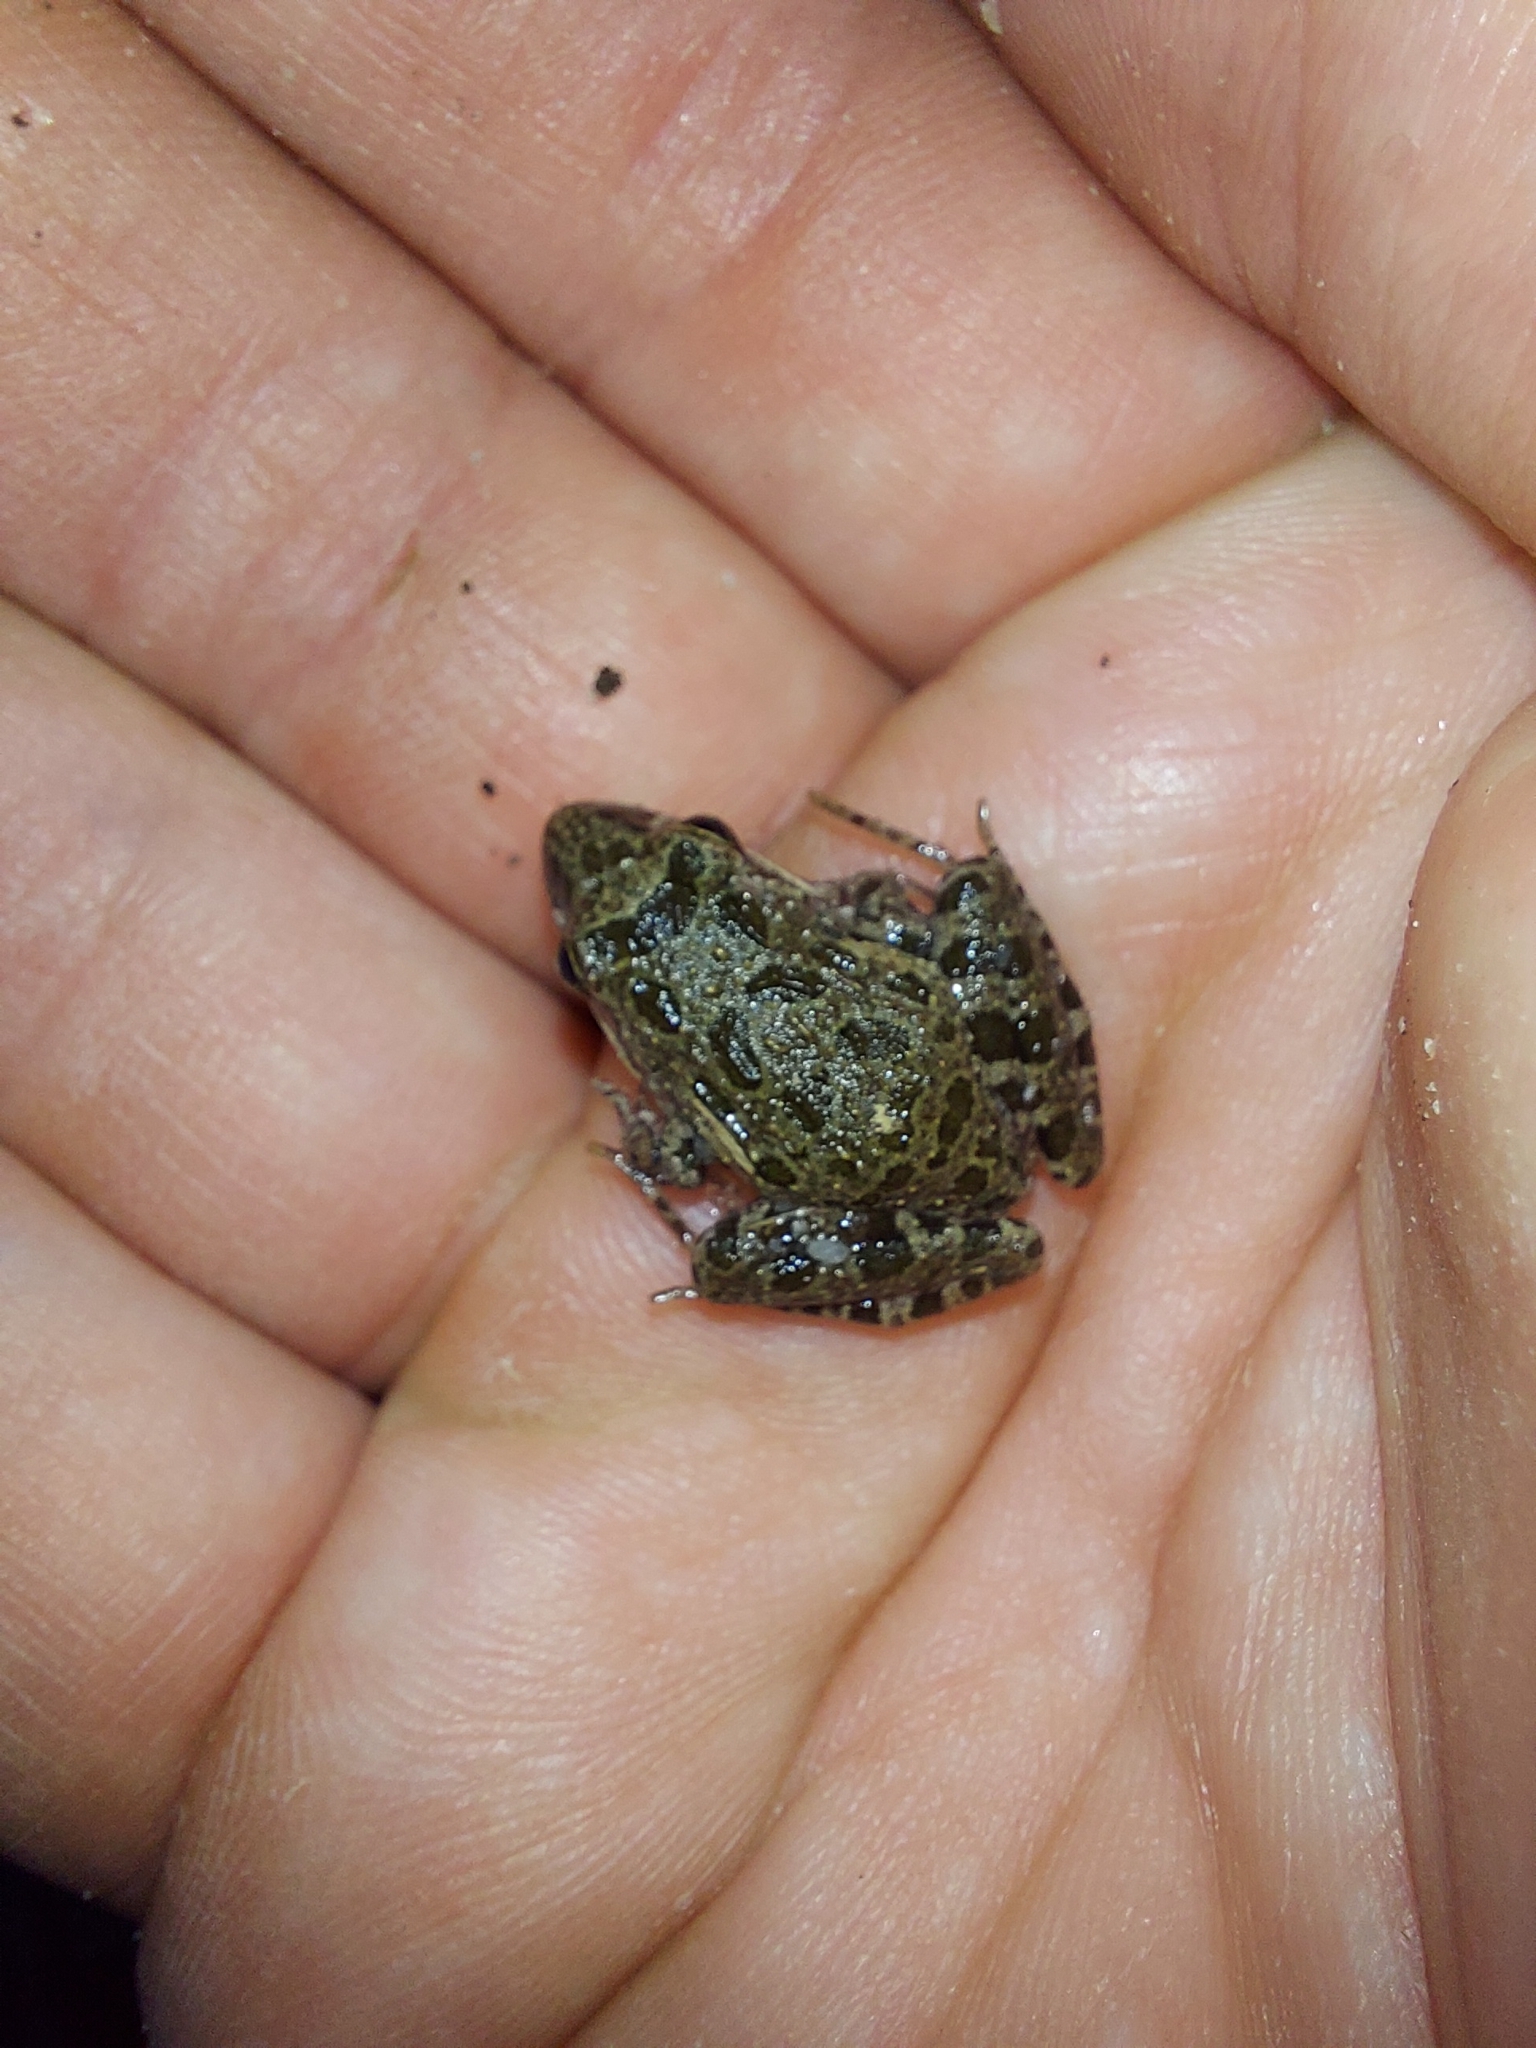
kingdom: Animalia
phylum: Chordata
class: Amphibia
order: Anura
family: Pyxicephalidae
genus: Strongylopus
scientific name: Strongylopus grayii
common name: Gray's stream frog
